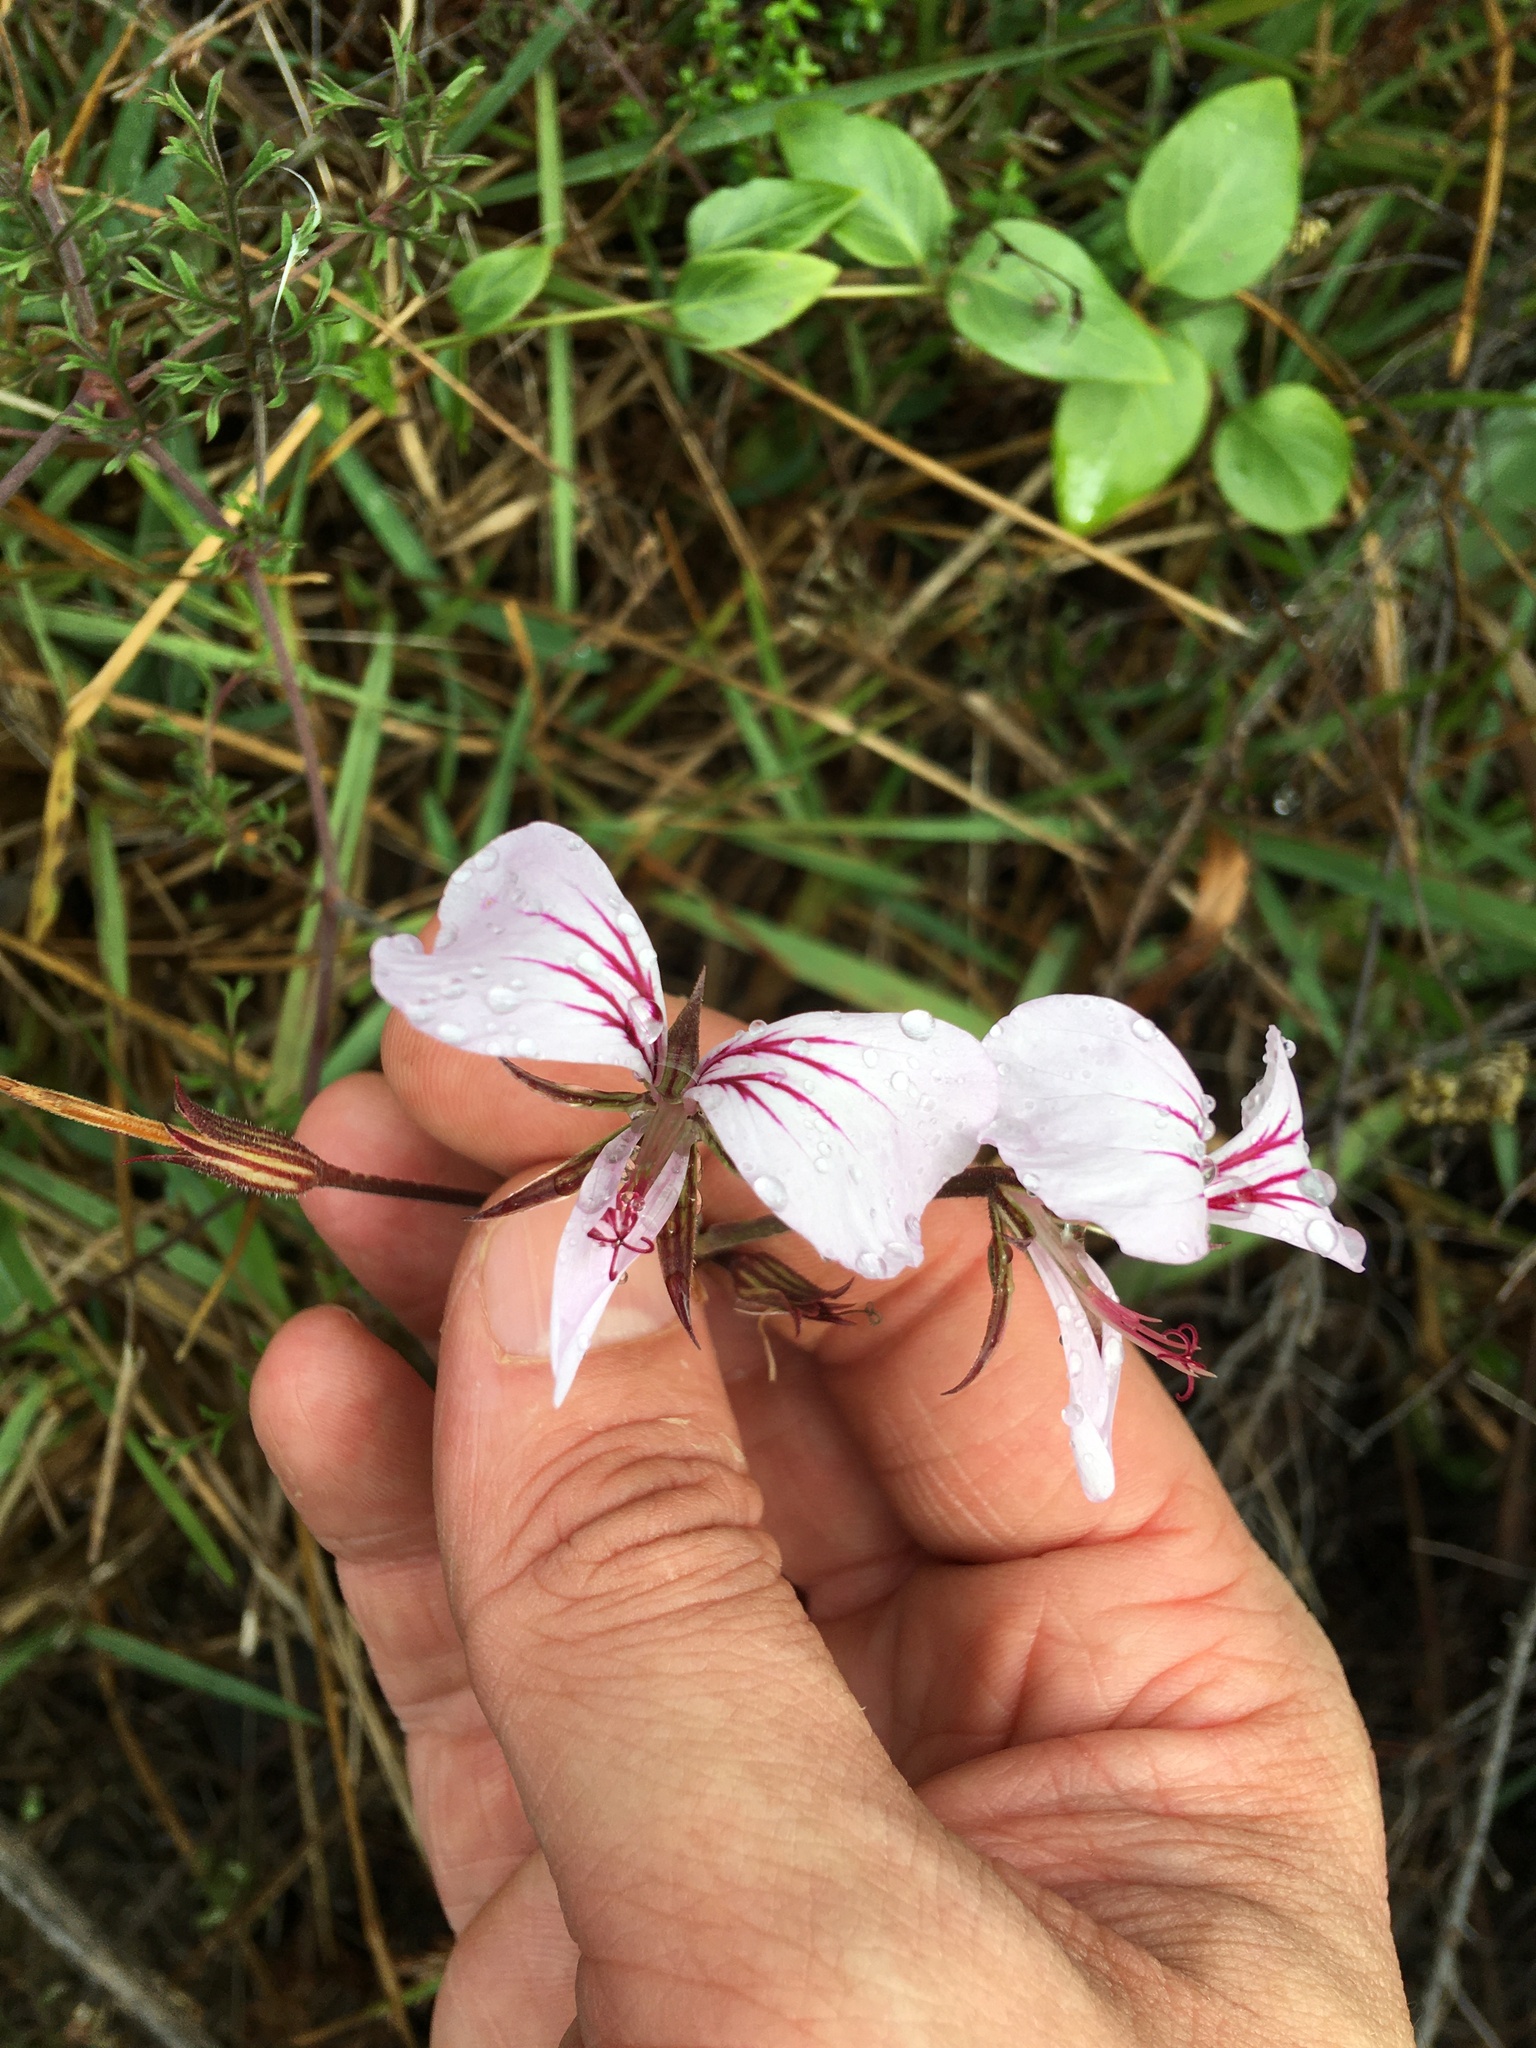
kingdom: Plantae
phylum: Tracheophyta
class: Magnoliopsida
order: Geraniales
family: Geraniaceae
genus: Pelargonium
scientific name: Pelargonium longicaule
